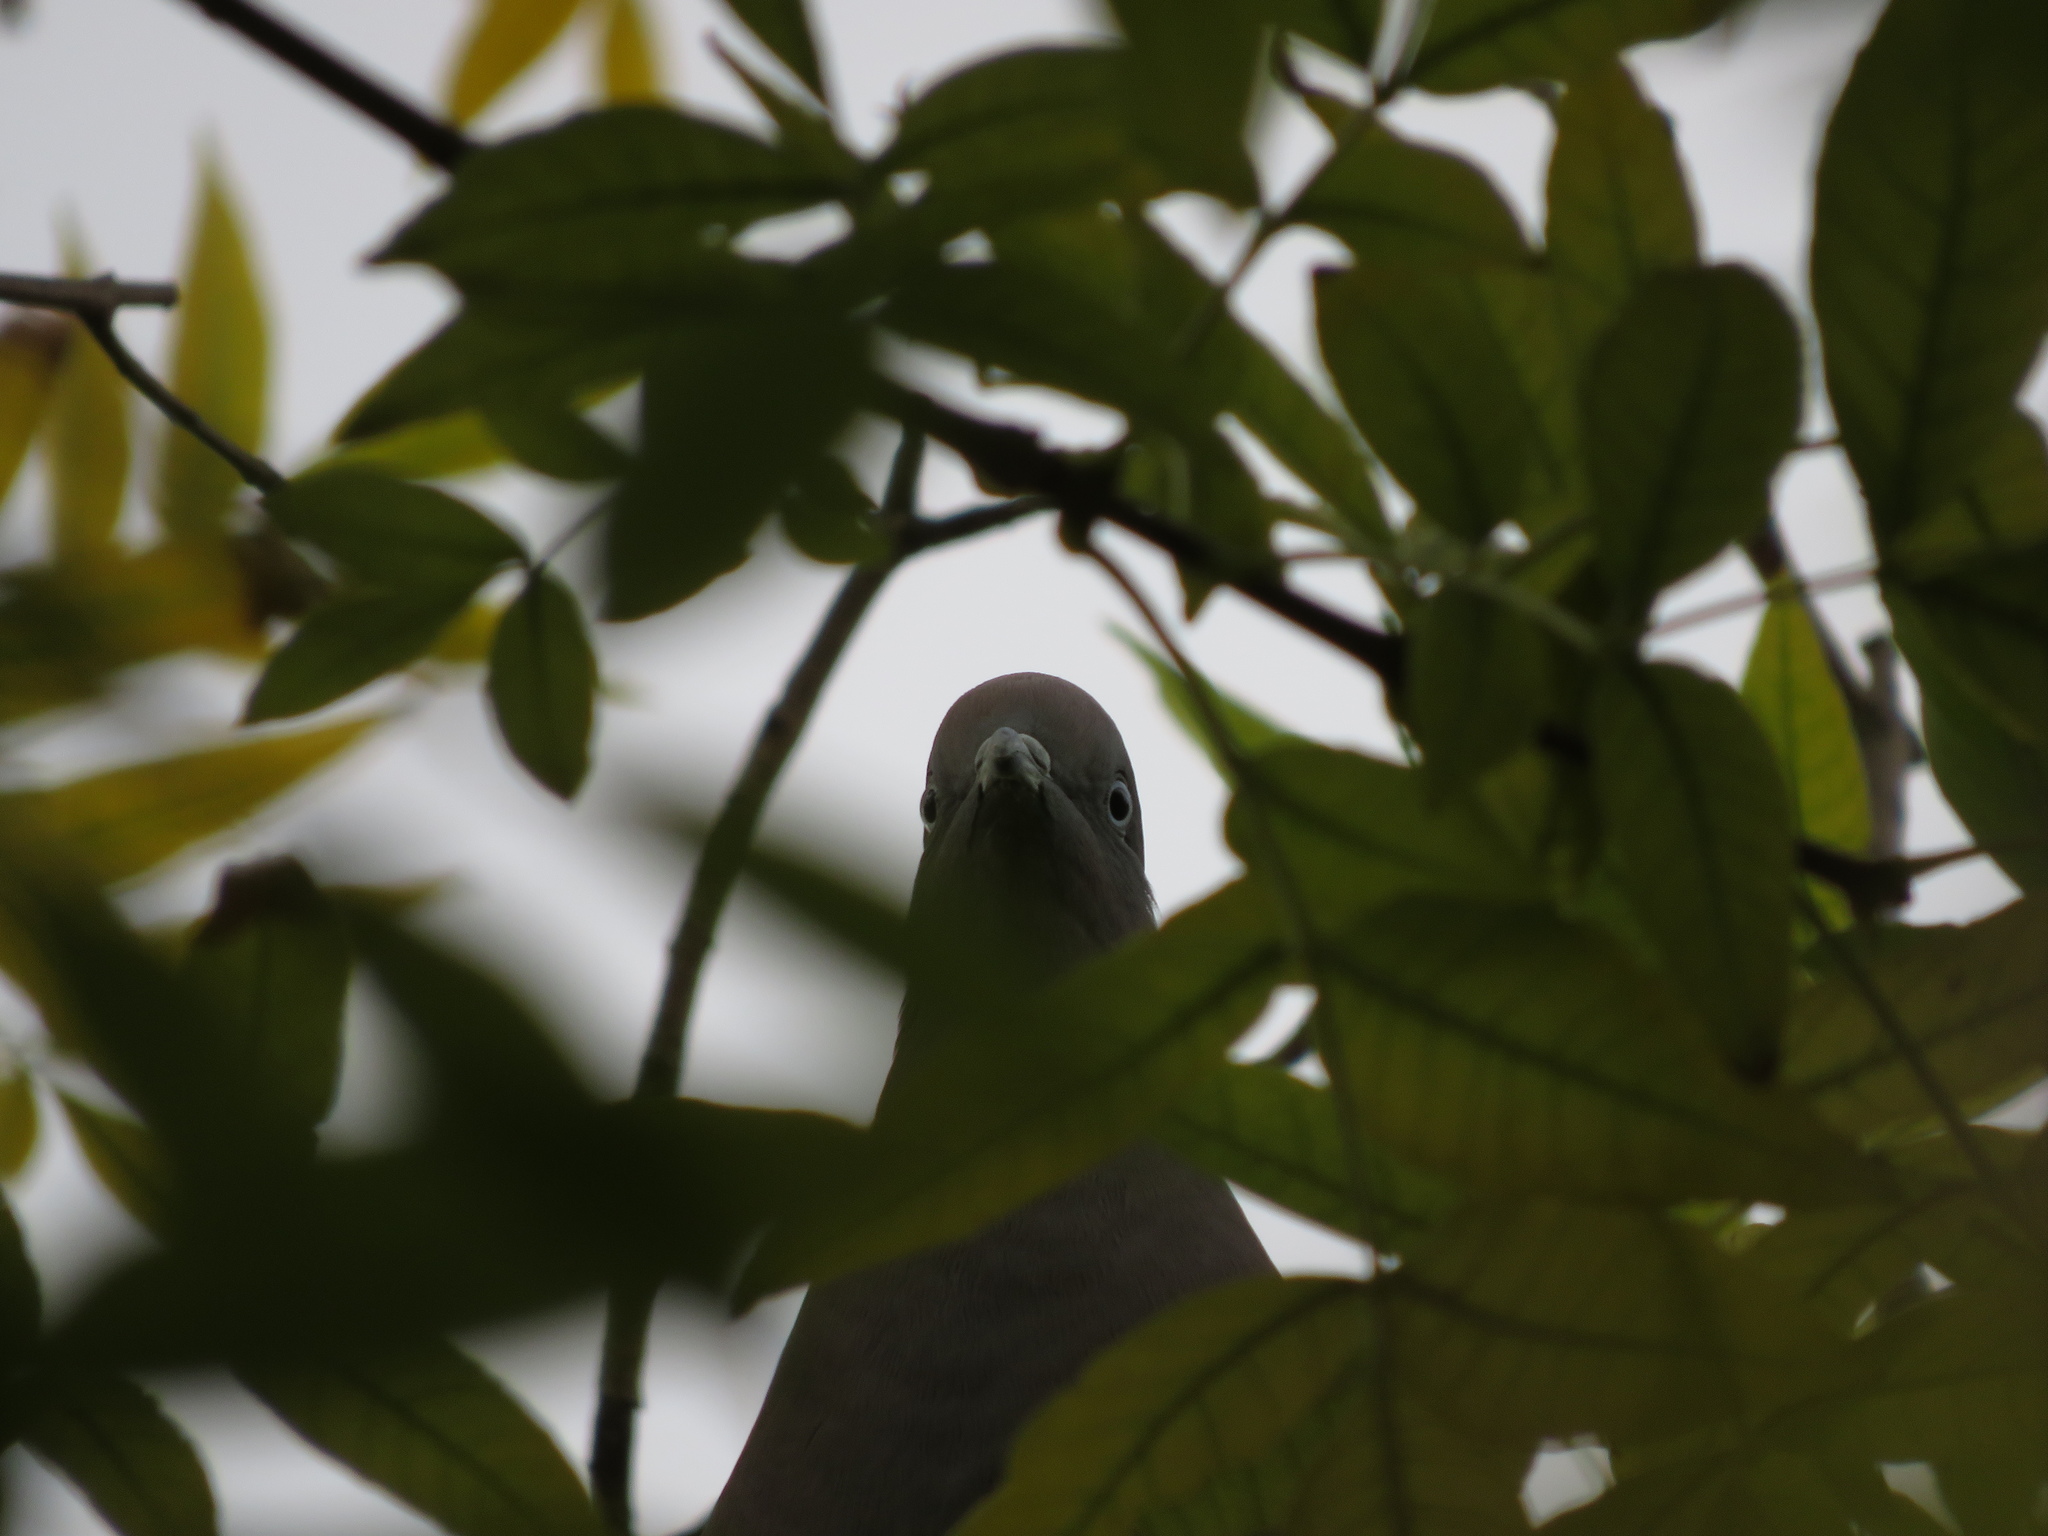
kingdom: Animalia
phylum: Chordata
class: Aves
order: Columbiformes
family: Columbidae
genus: Patagioenas
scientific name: Patagioenas maculosa
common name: Spot-winged pigeon
